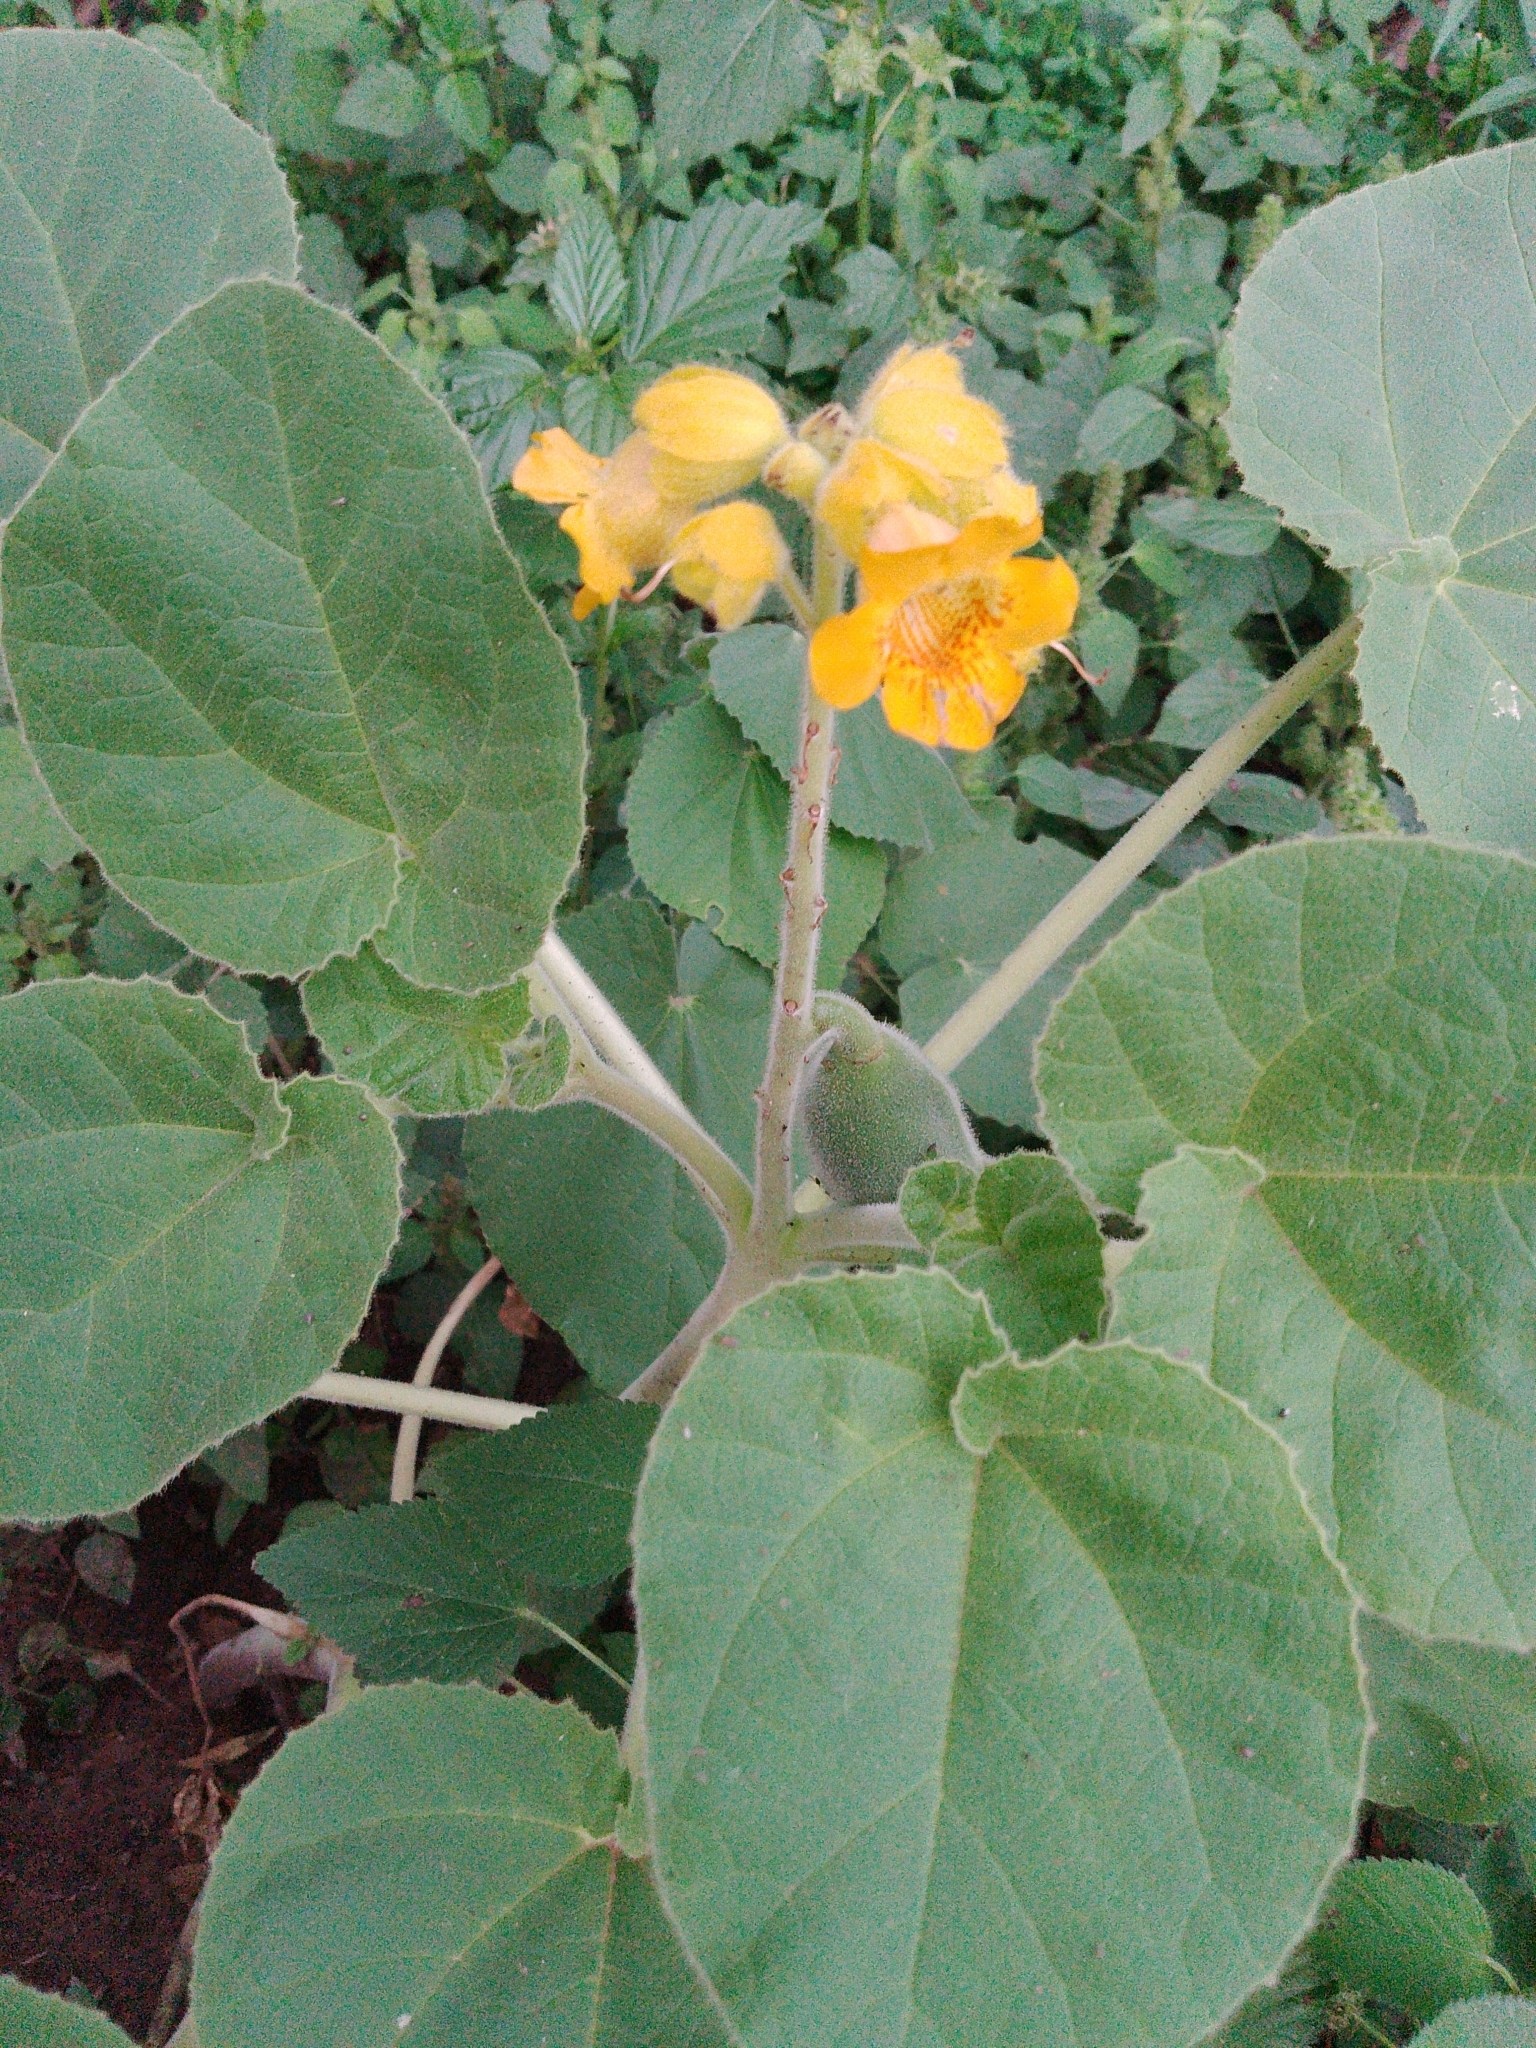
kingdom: Plantae
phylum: Tracheophyta
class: Magnoliopsida
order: Lamiales
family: Martyniaceae
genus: Ibicella
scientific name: Ibicella lutea
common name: Yellow unicorn-plant
